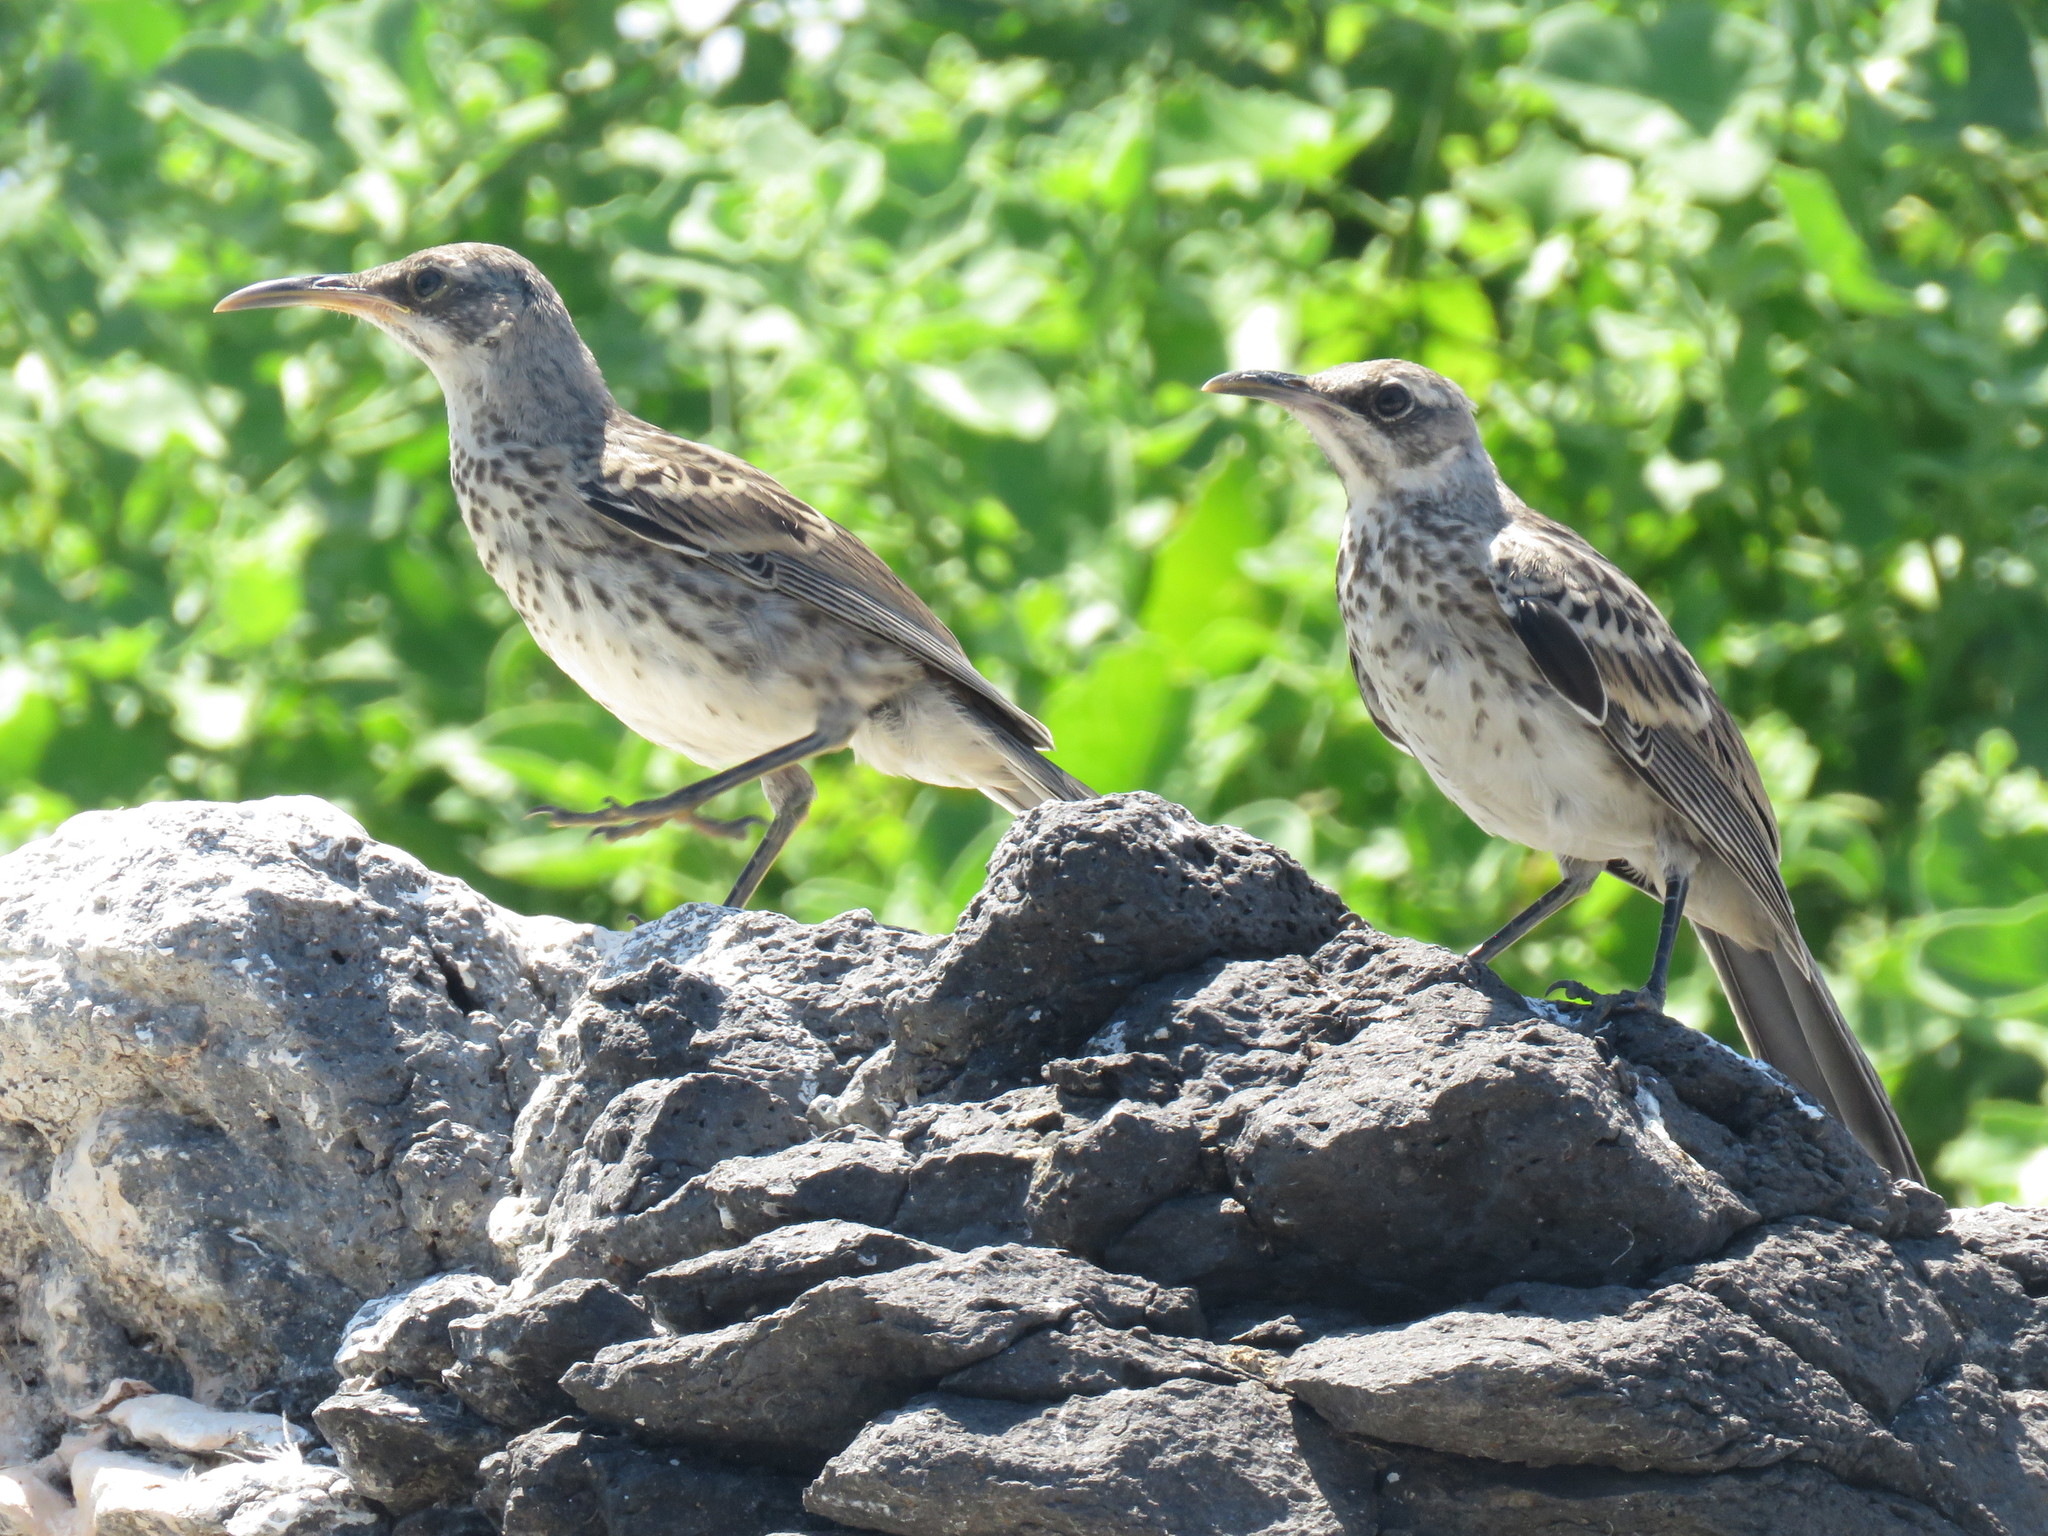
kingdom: Animalia
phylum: Chordata
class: Aves
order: Passeriformes
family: Mimidae
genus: Mimus
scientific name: Mimus macdonaldi
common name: Espanola mockingbird
